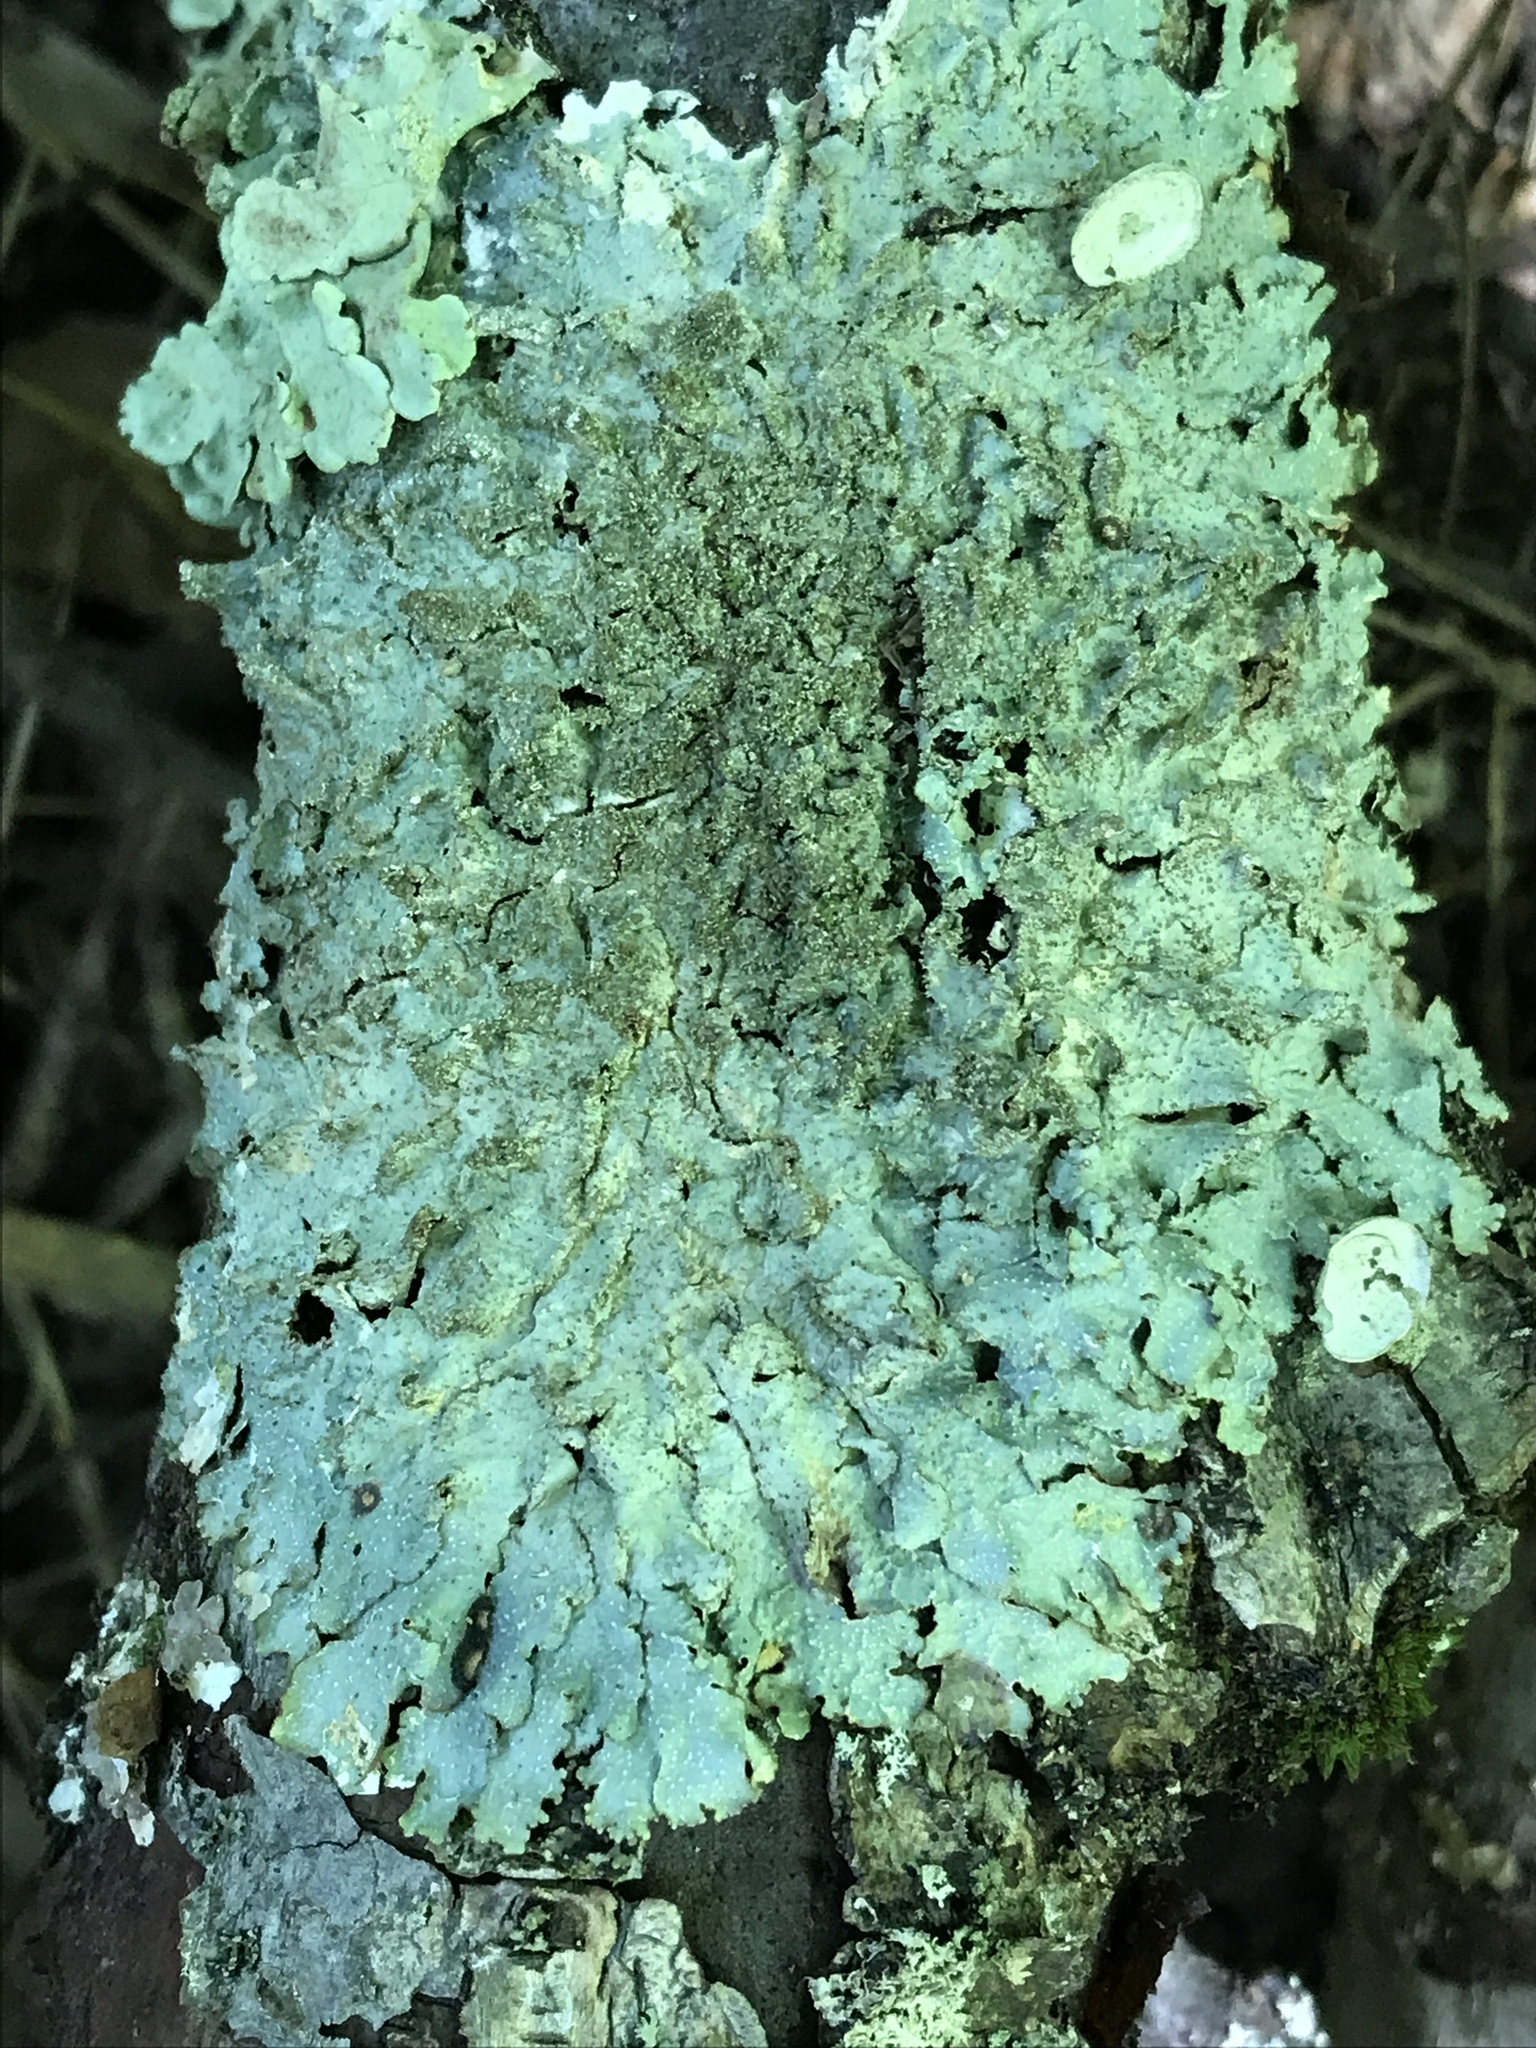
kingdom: Fungi
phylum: Ascomycota
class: Lecanoromycetes
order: Lecanorales
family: Parmeliaceae
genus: Punctelia
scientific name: Punctelia rudecta
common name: Rough speckled shield lichen
